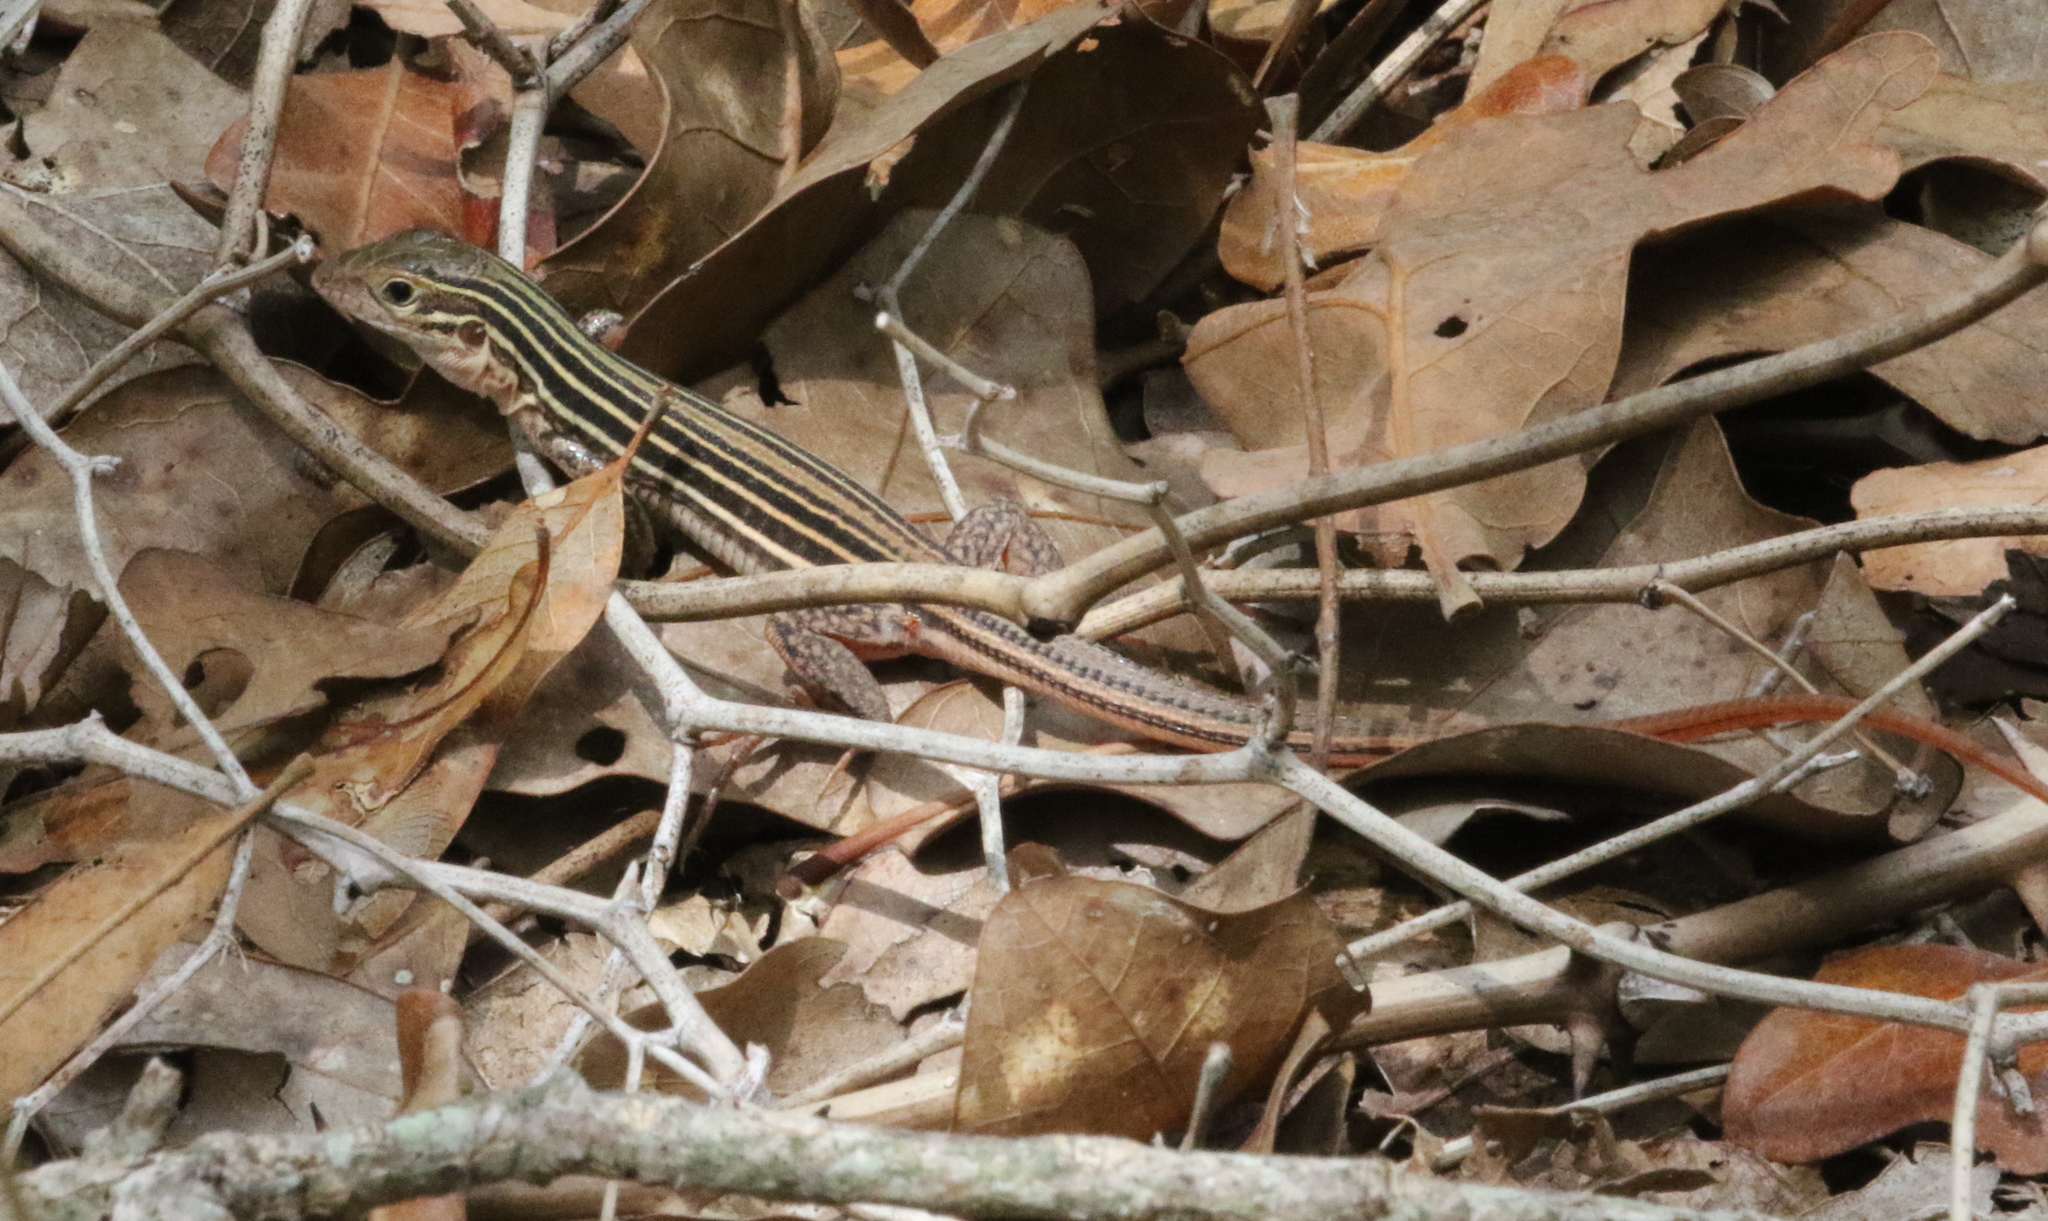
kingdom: Animalia
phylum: Chordata
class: Squamata
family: Teiidae
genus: Aspidoscelis
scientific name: Aspidoscelis gularis
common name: Eastern spotted whiptail
